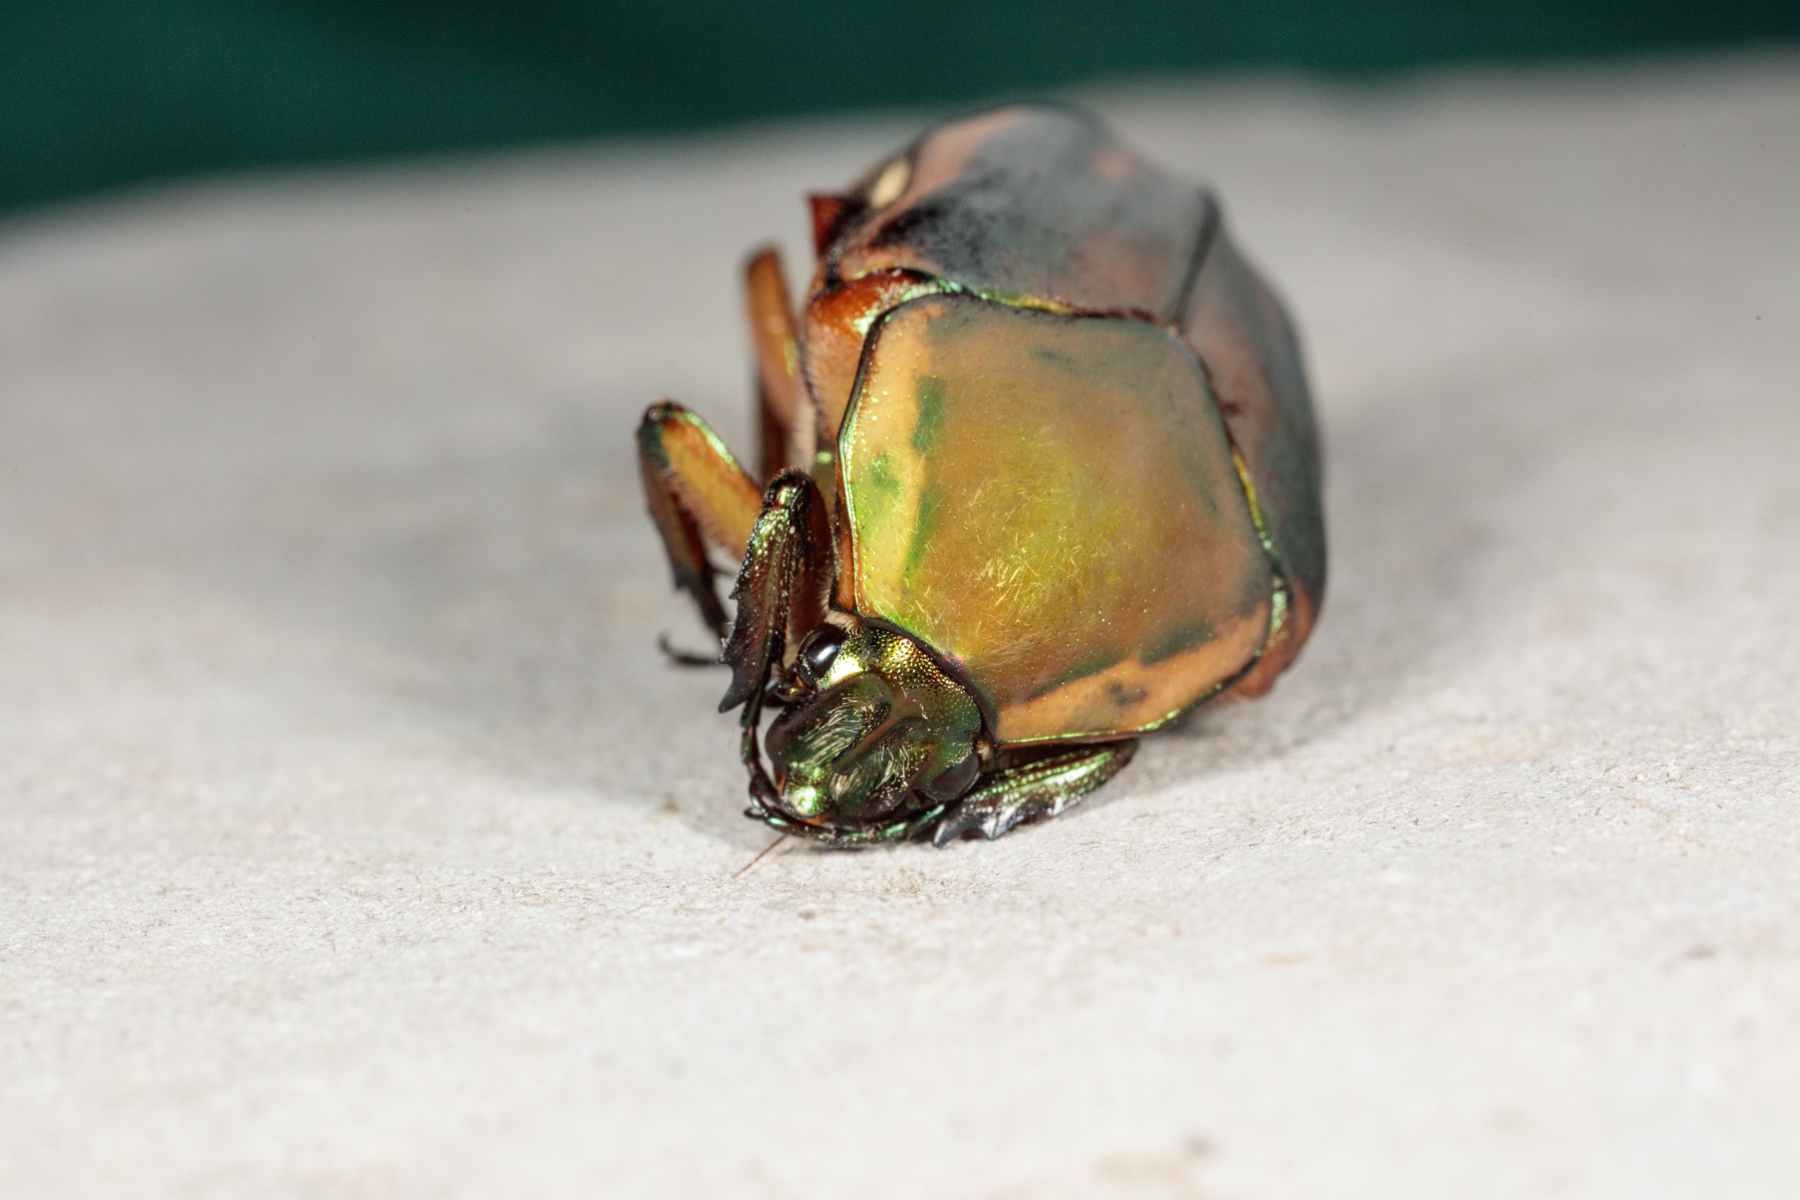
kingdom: Animalia
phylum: Arthropoda
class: Insecta
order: Coleoptera
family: Scarabaeidae
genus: Cotinis
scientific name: Cotinis nitida
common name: Common green june beetle
